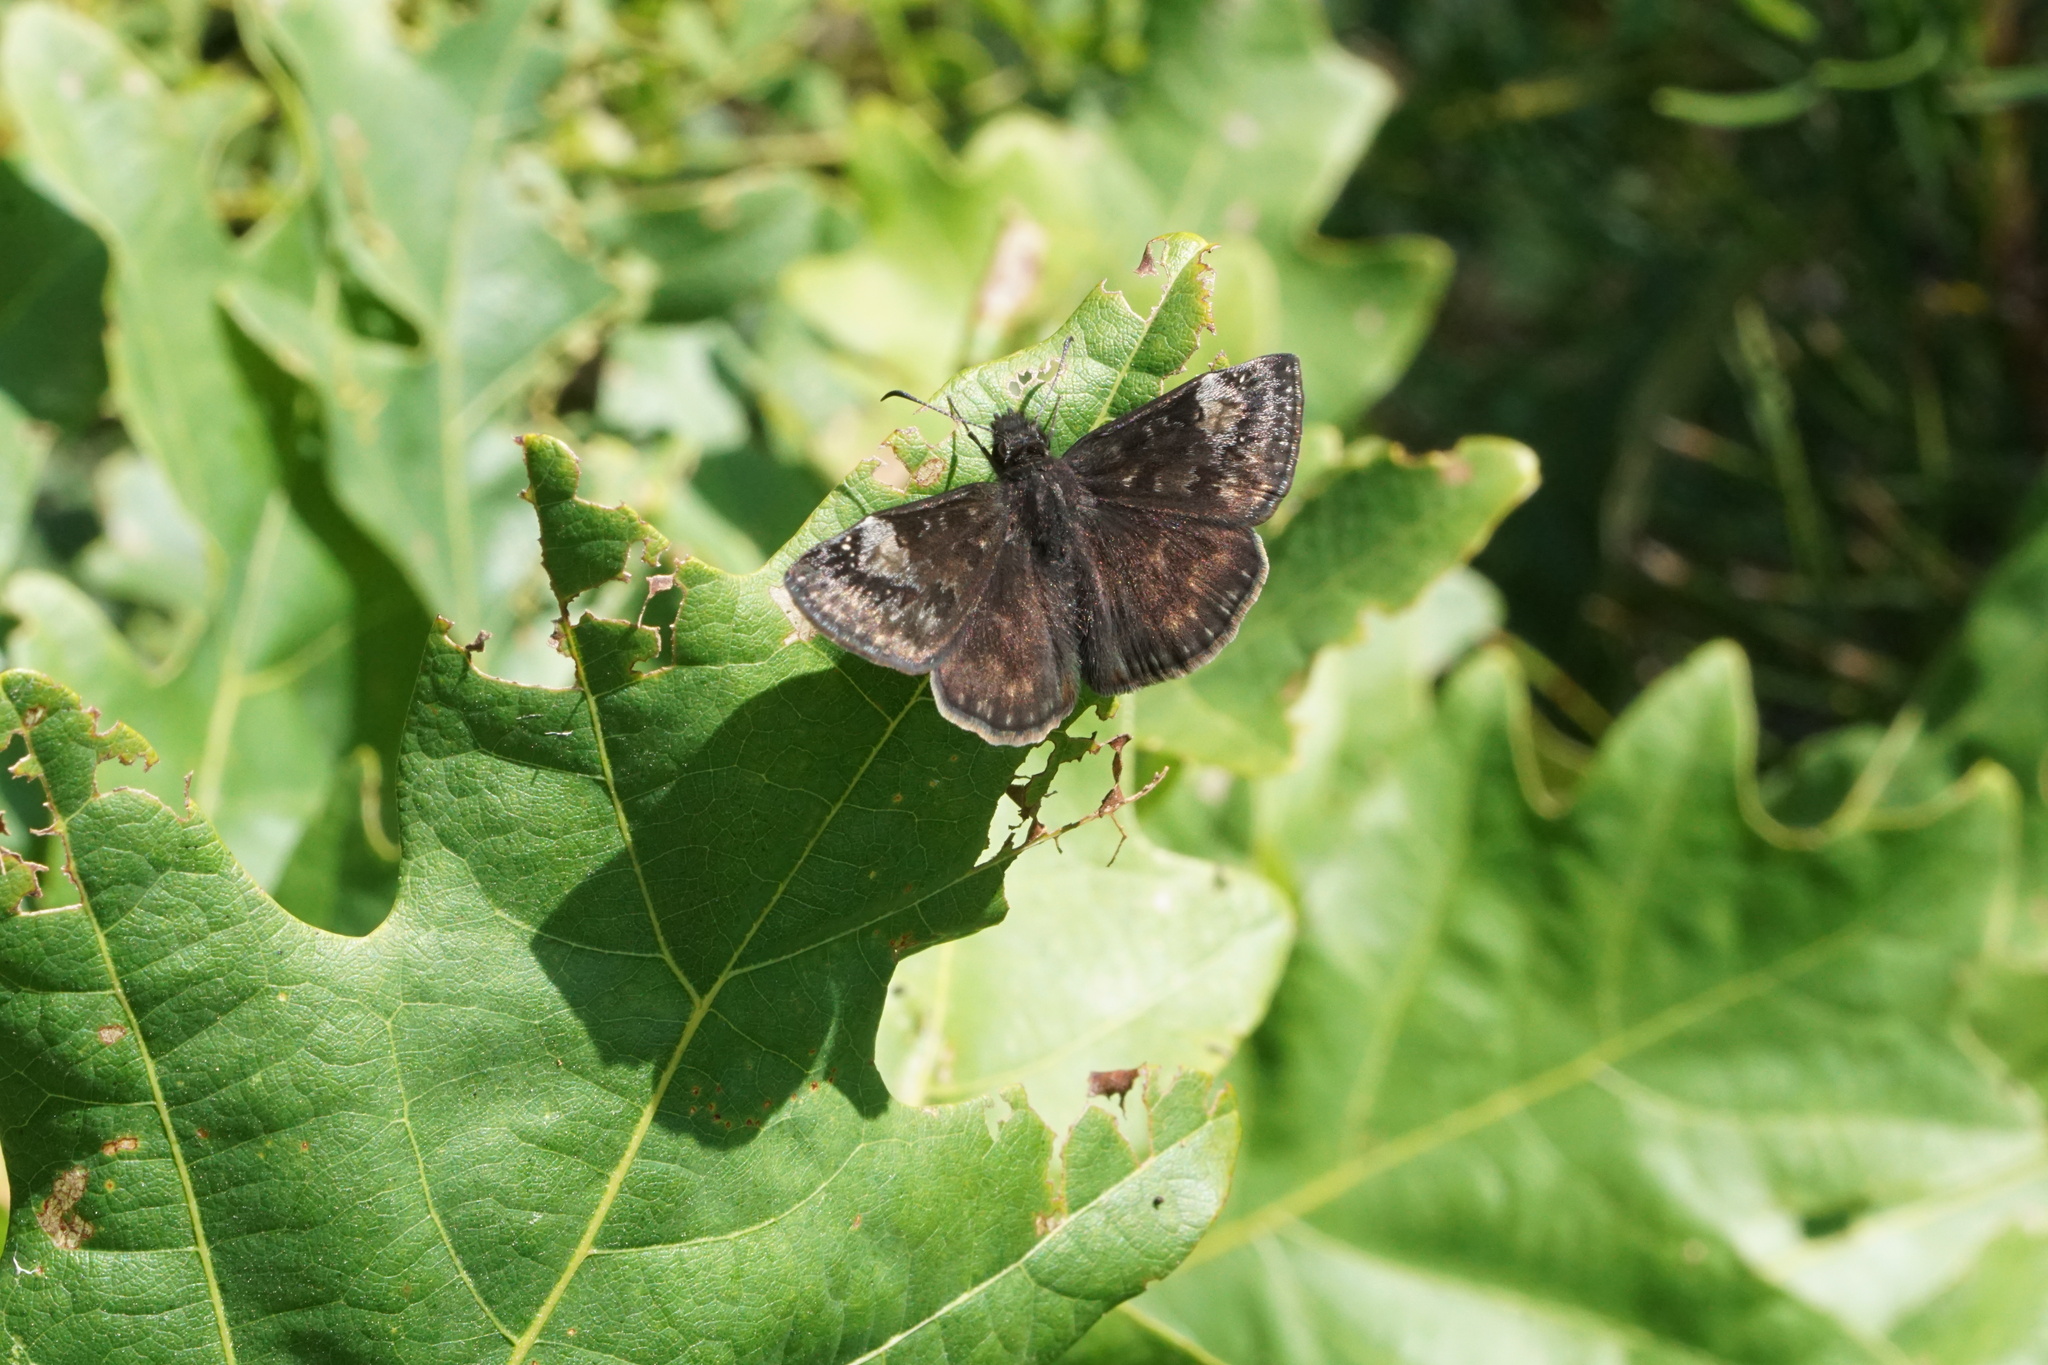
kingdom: Animalia
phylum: Arthropoda
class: Insecta
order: Lepidoptera
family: Hesperiidae
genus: Erynnis
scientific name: Erynnis baptisiae
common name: Wild indigo duskywing
